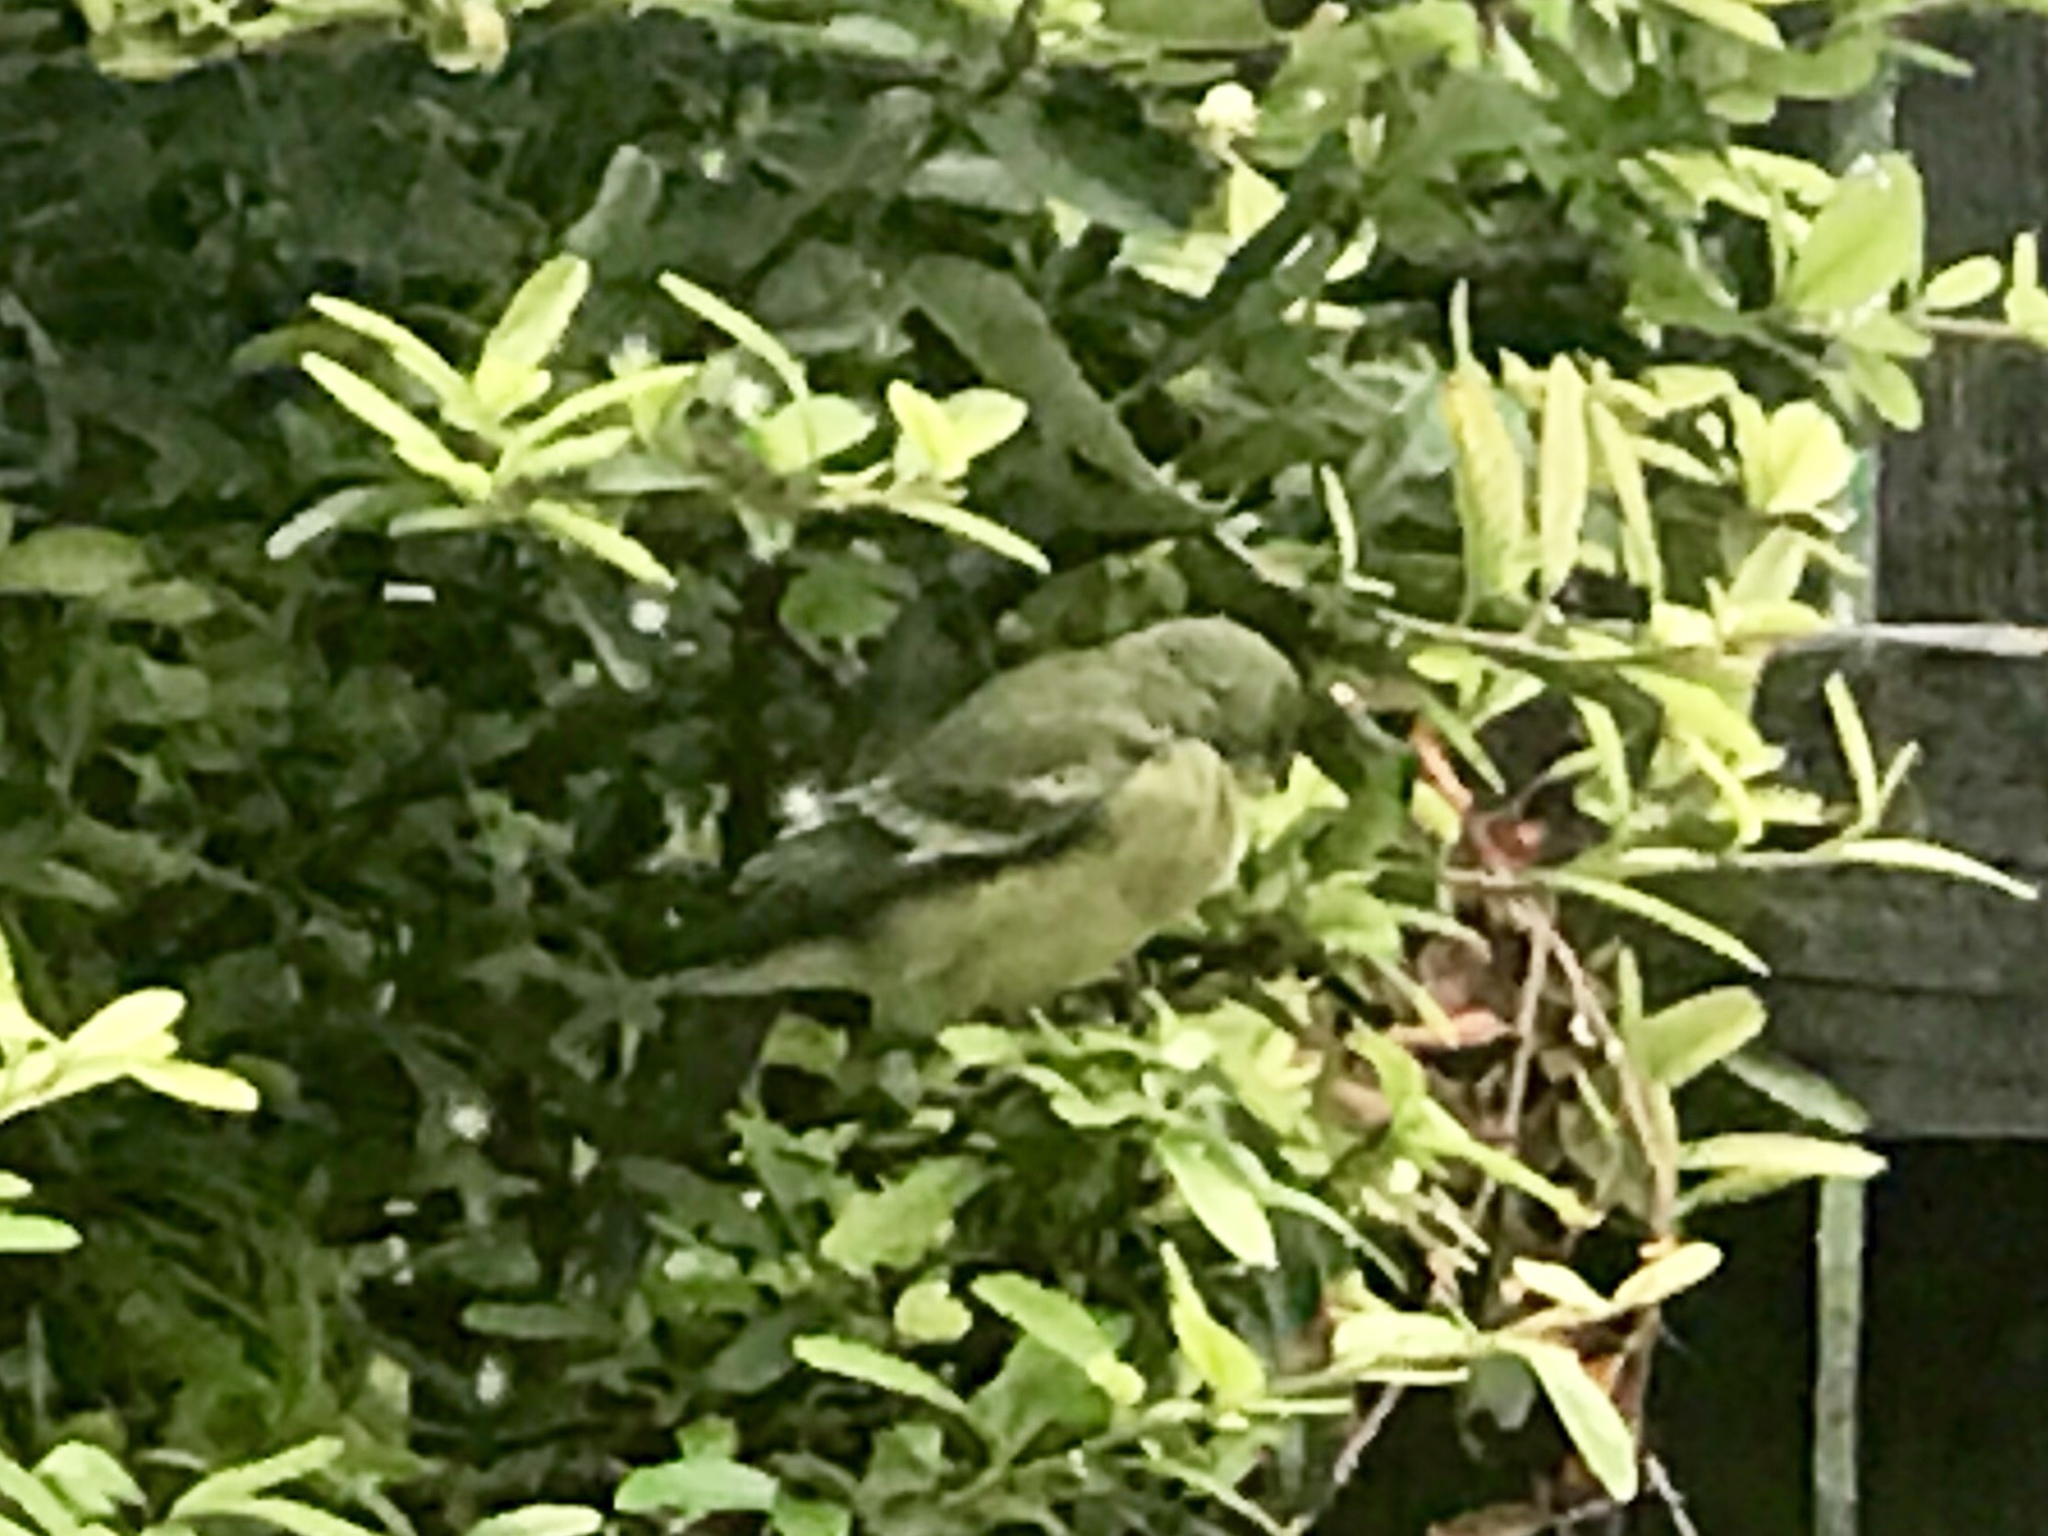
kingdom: Animalia
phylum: Chordata
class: Aves
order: Passeriformes
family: Fringillidae
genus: Spinus
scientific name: Spinus psaltria
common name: Lesser goldfinch
